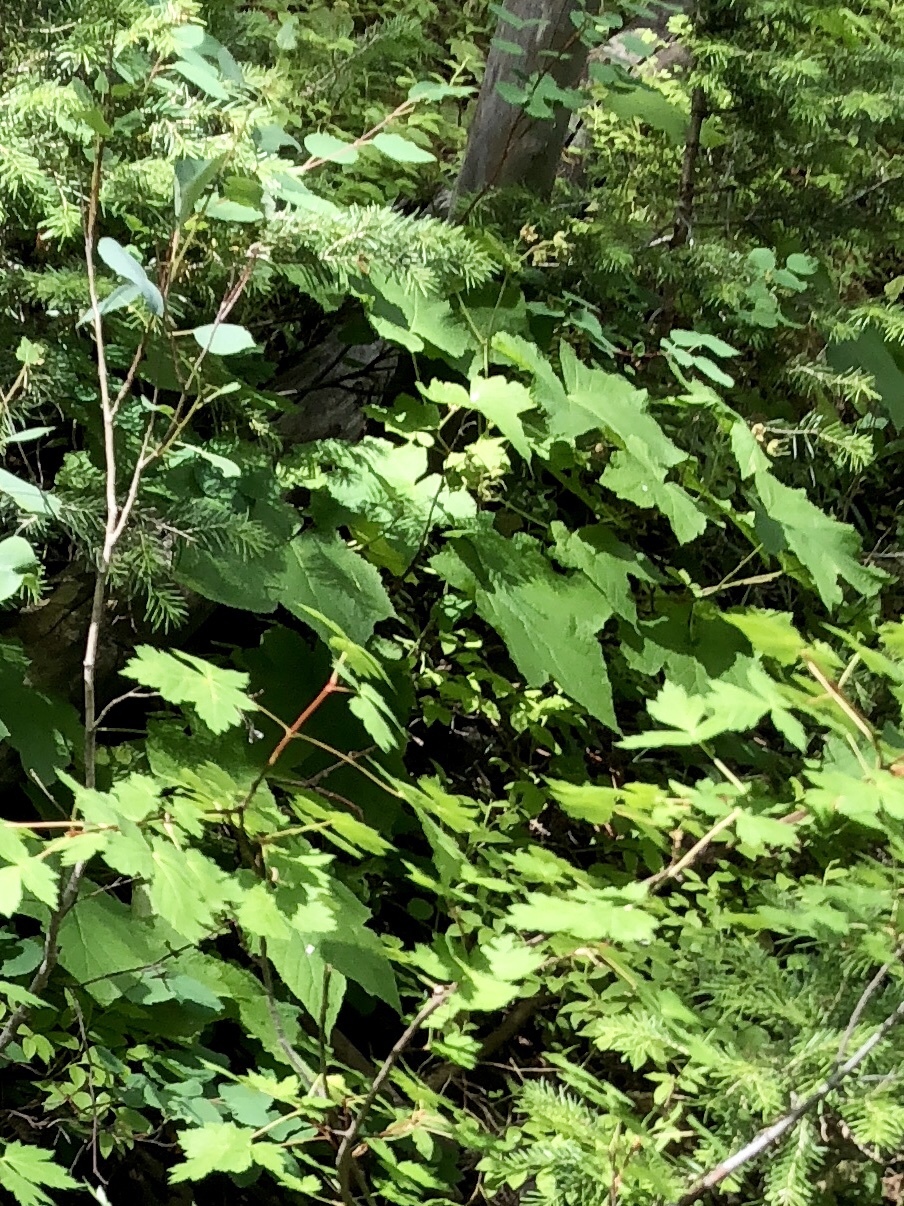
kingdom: Plantae
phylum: Tracheophyta
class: Magnoliopsida
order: Rosales
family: Rosaceae
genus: Rubus
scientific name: Rubus parviflorus
